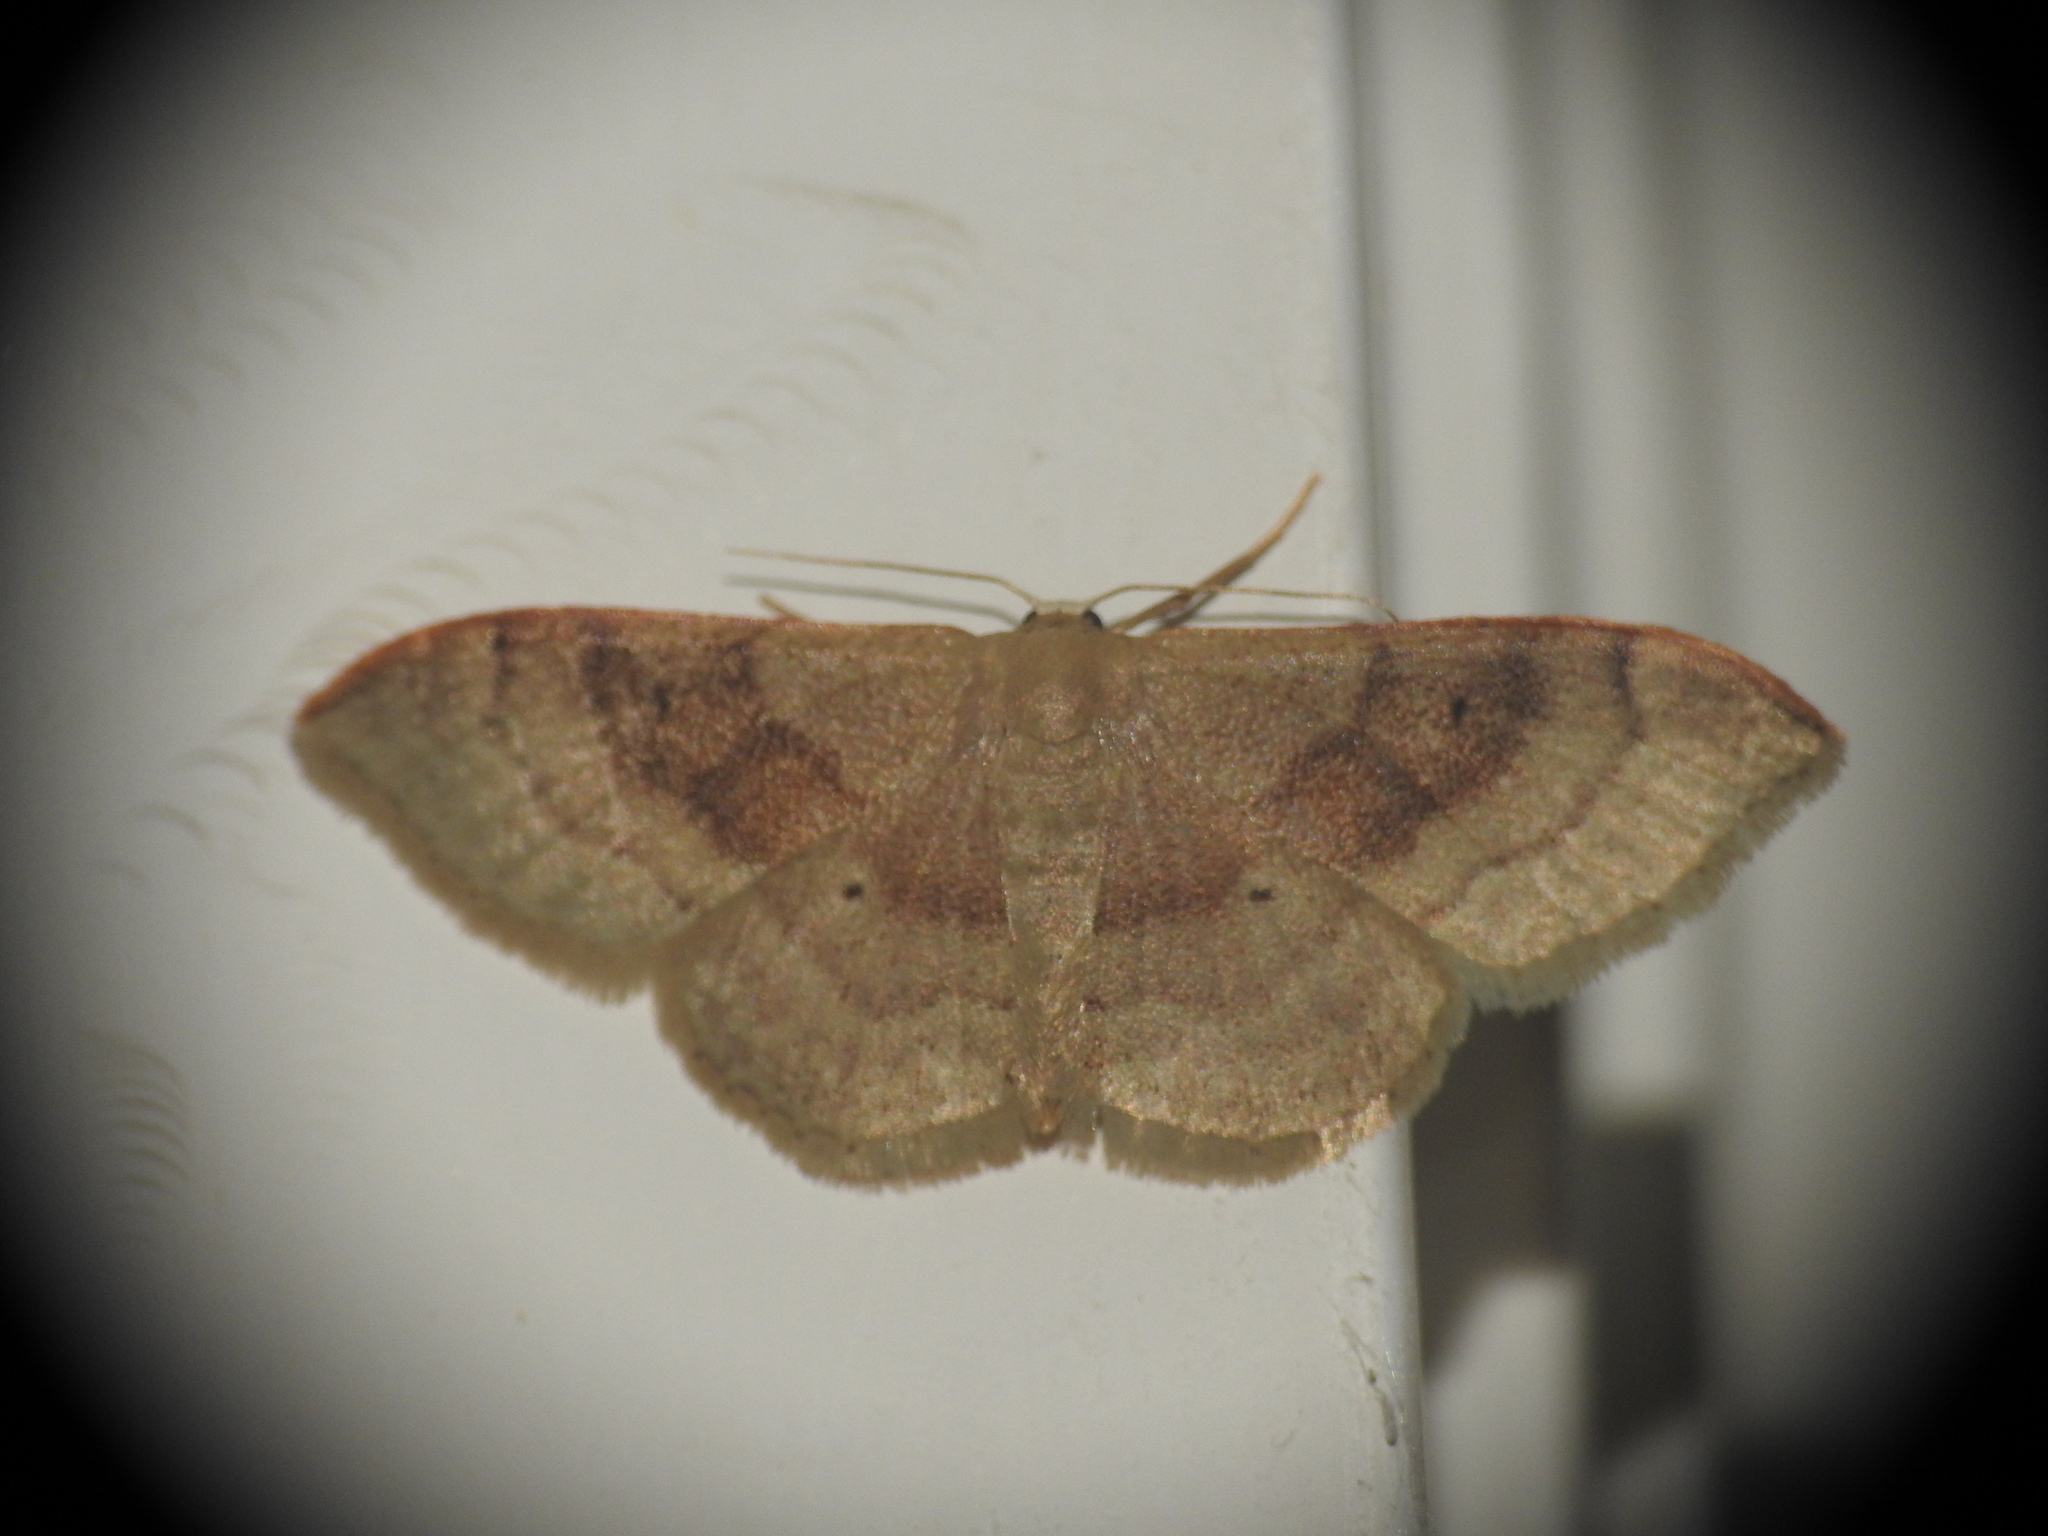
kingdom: Animalia
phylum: Arthropoda
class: Insecta
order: Lepidoptera
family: Geometridae
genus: Idaea
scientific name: Idaea degeneraria
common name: Portland ribbon wave
